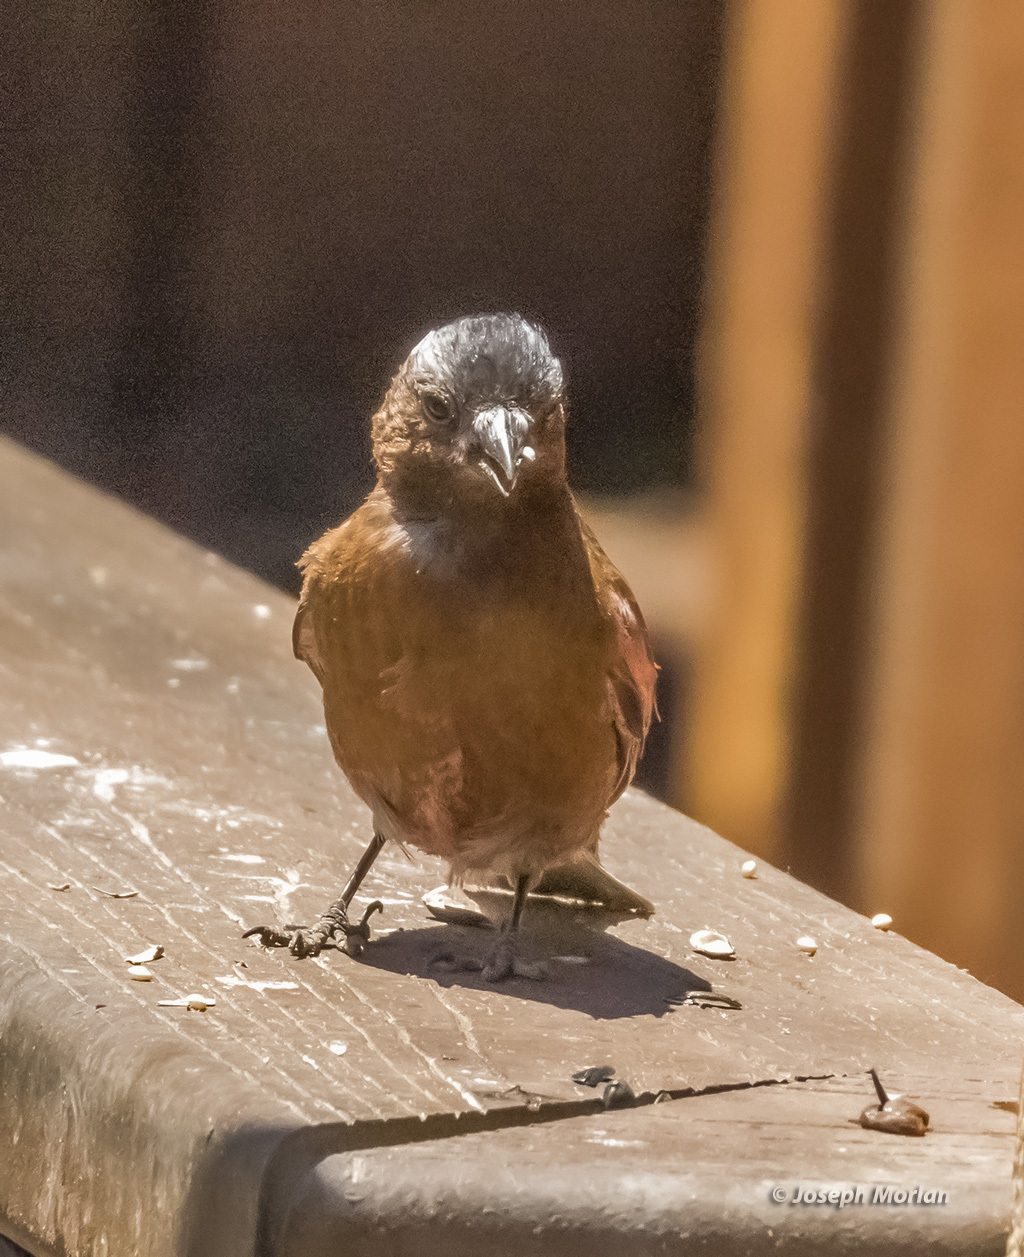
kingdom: Animalia
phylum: Chordata
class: Aves
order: Passeriformes
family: Fringillidae
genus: Leucosticte
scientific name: Leucosticte tephrocotis
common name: Gray-crowned rosy-finch
